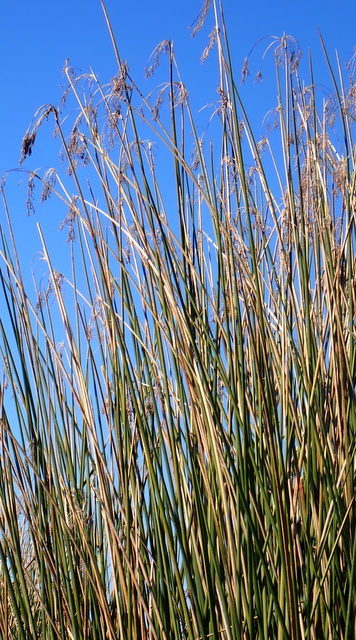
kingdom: Plantae
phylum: Tracheophyta
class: Liliopsida
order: Poales
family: Cyperaceae
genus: Schoenoplectus
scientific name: Schoenoplectus californicus
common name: California bulrush
